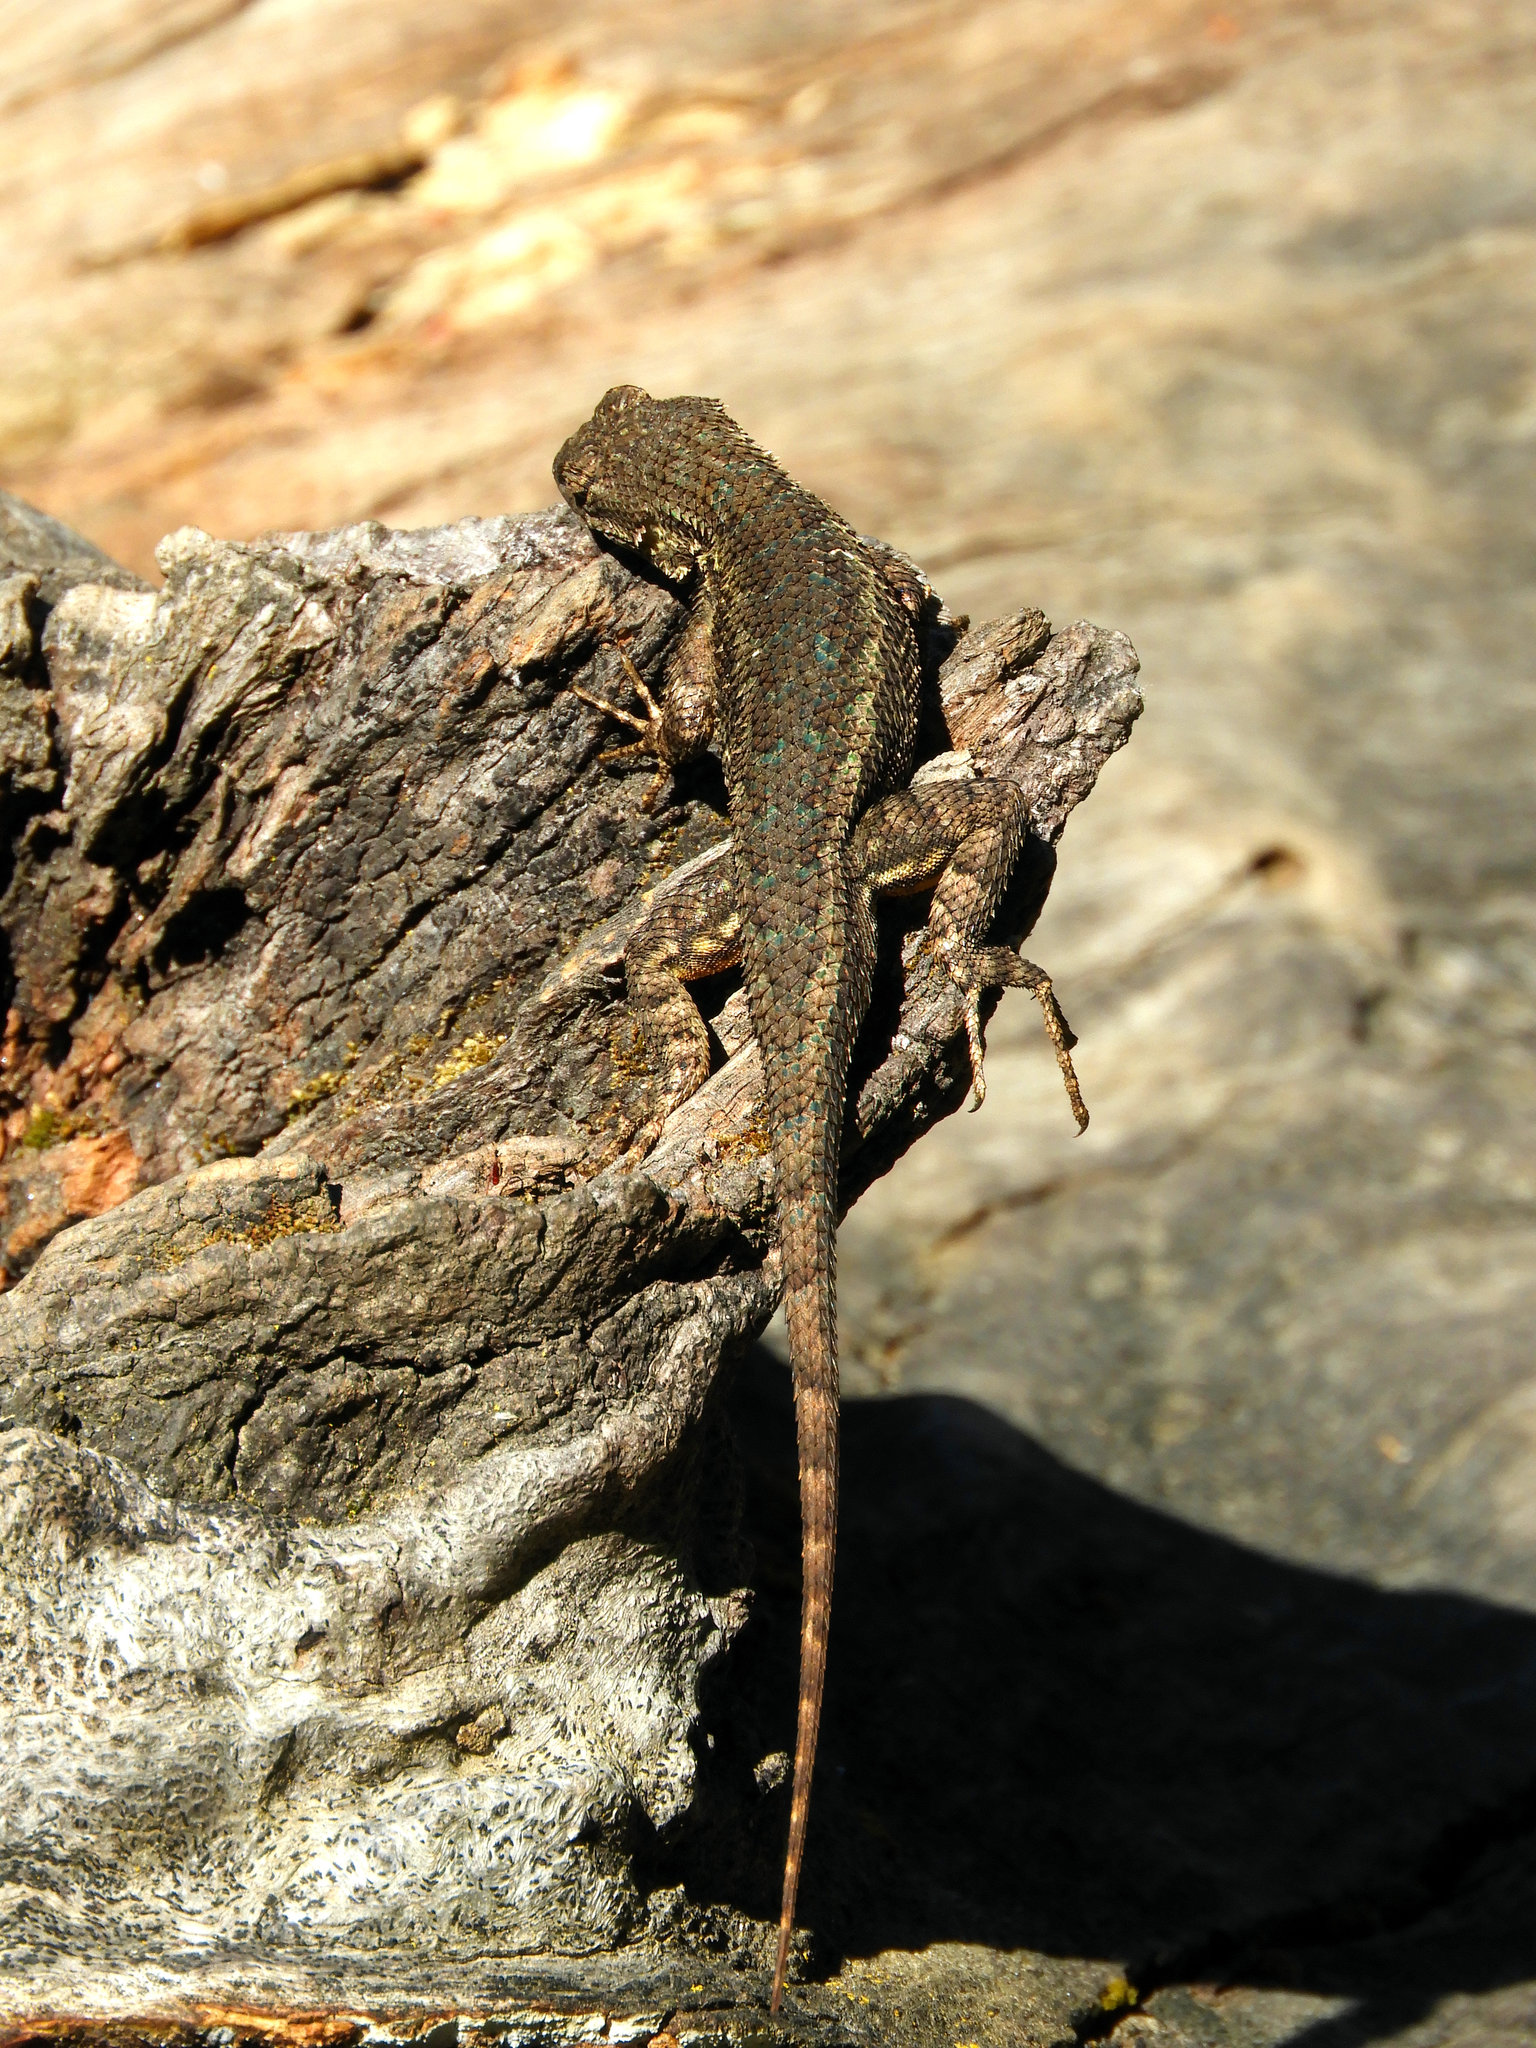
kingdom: Animalia
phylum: Chordata
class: Squamata
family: Phrynosomatidae
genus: Sceloporus
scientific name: Sceloporus occidentalis
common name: Western fence lizard
